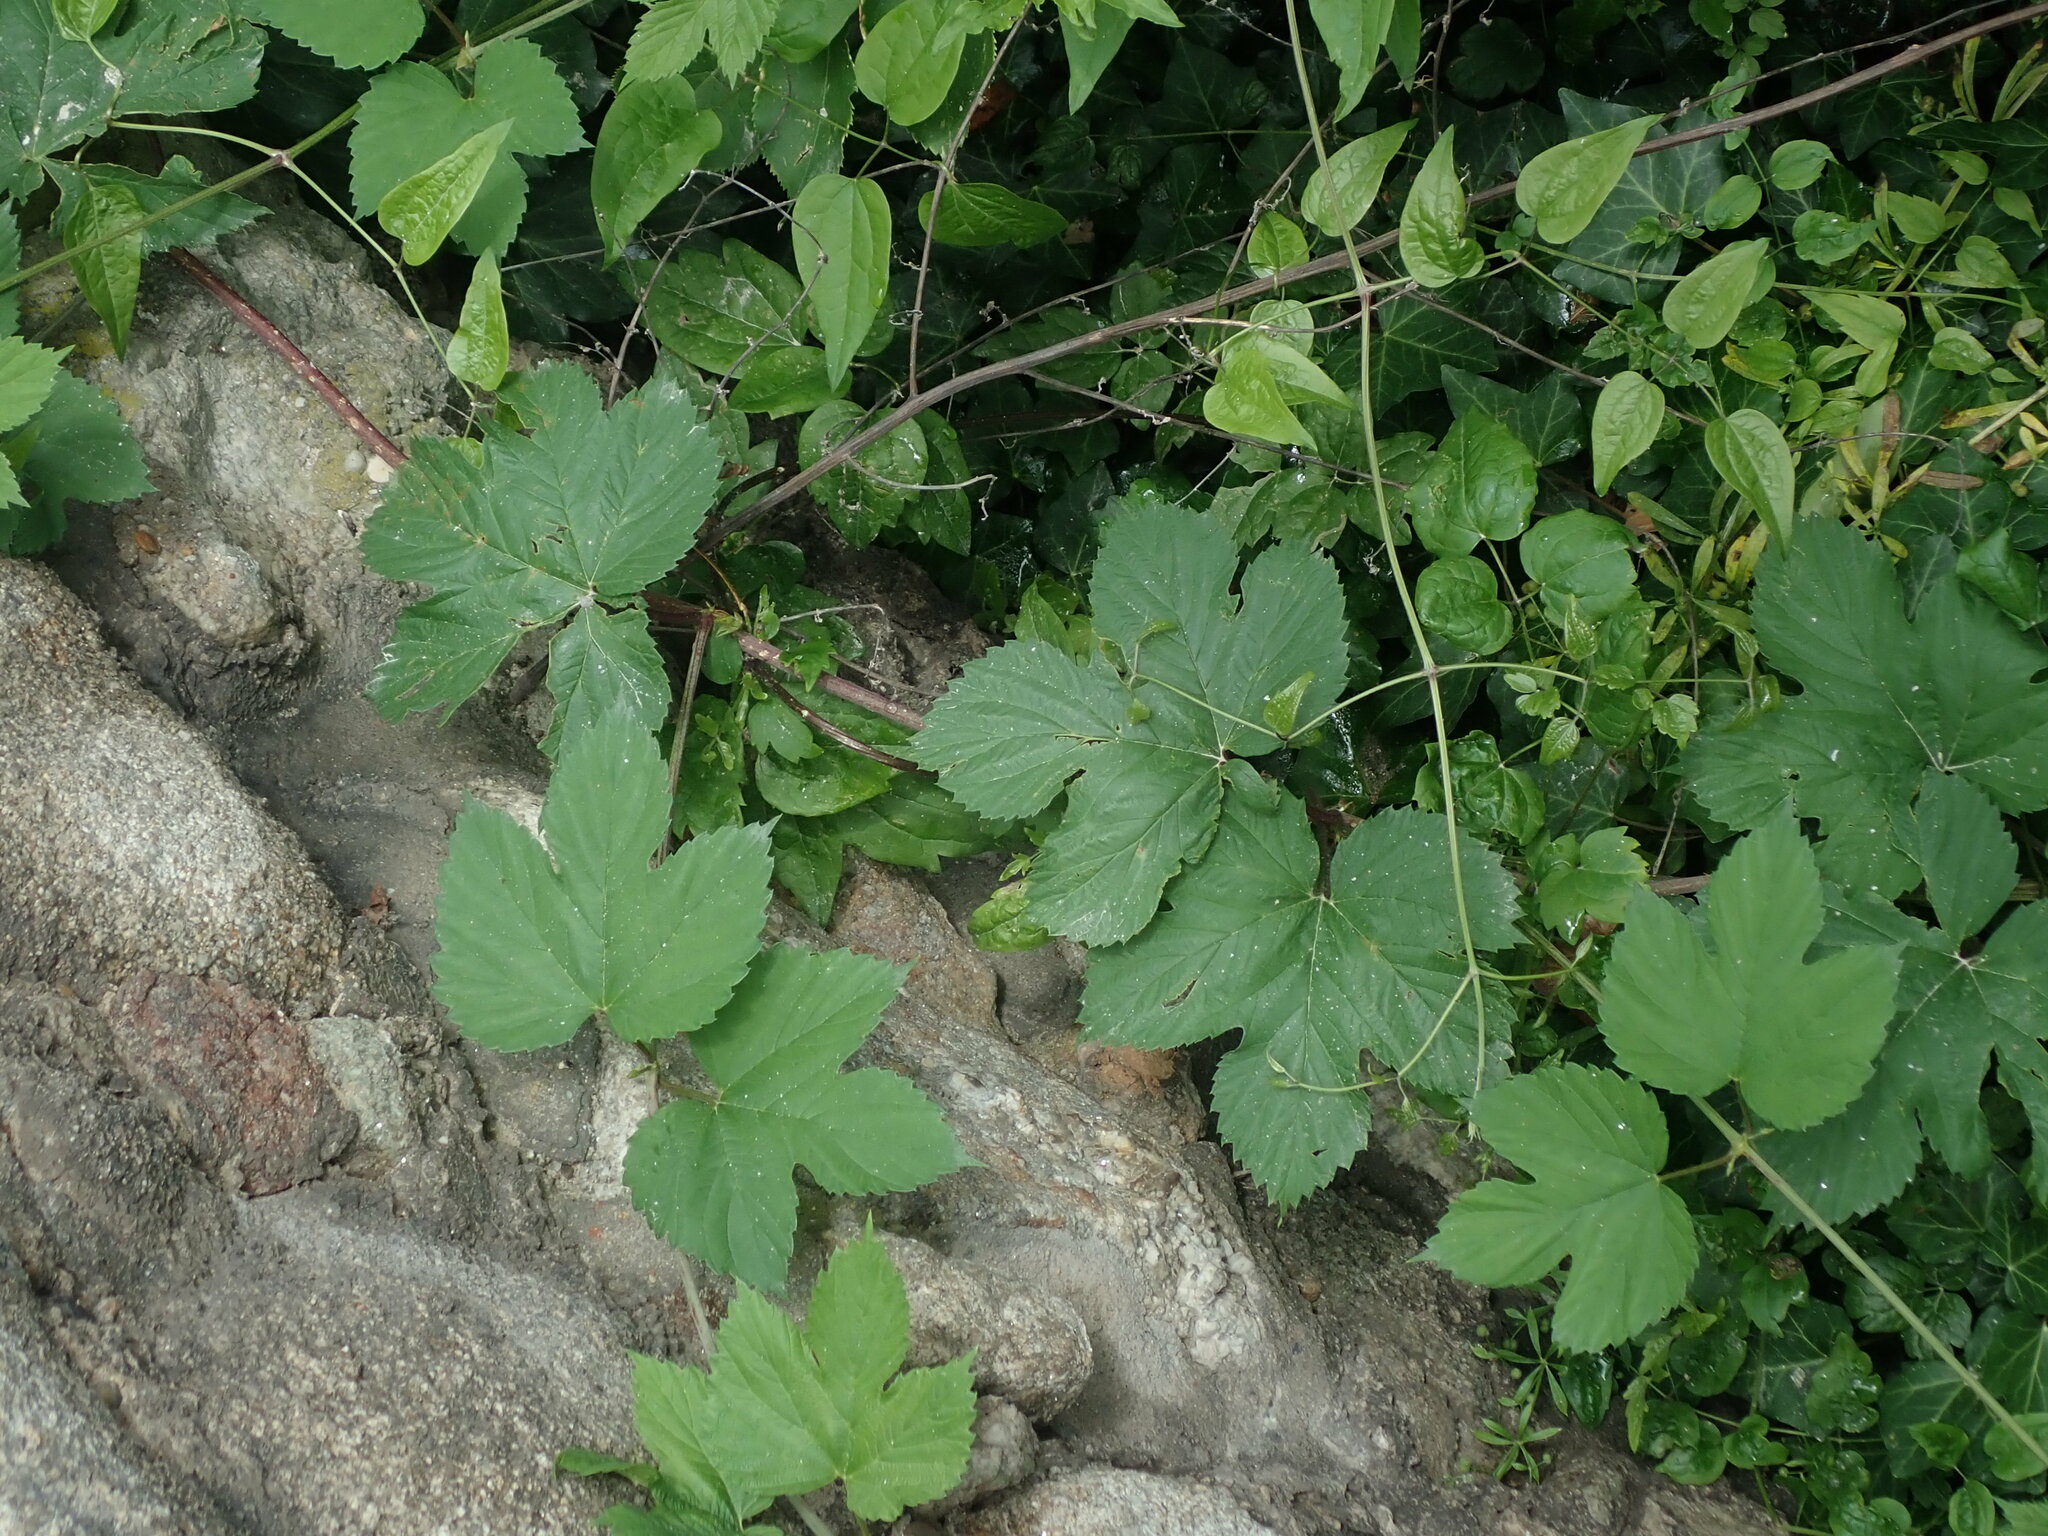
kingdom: Plantae
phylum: Tracheophyta
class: Magnoliopsida
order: Rosales
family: Cannabaceae
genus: Humulus
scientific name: Humulus lupulus
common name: Hop
